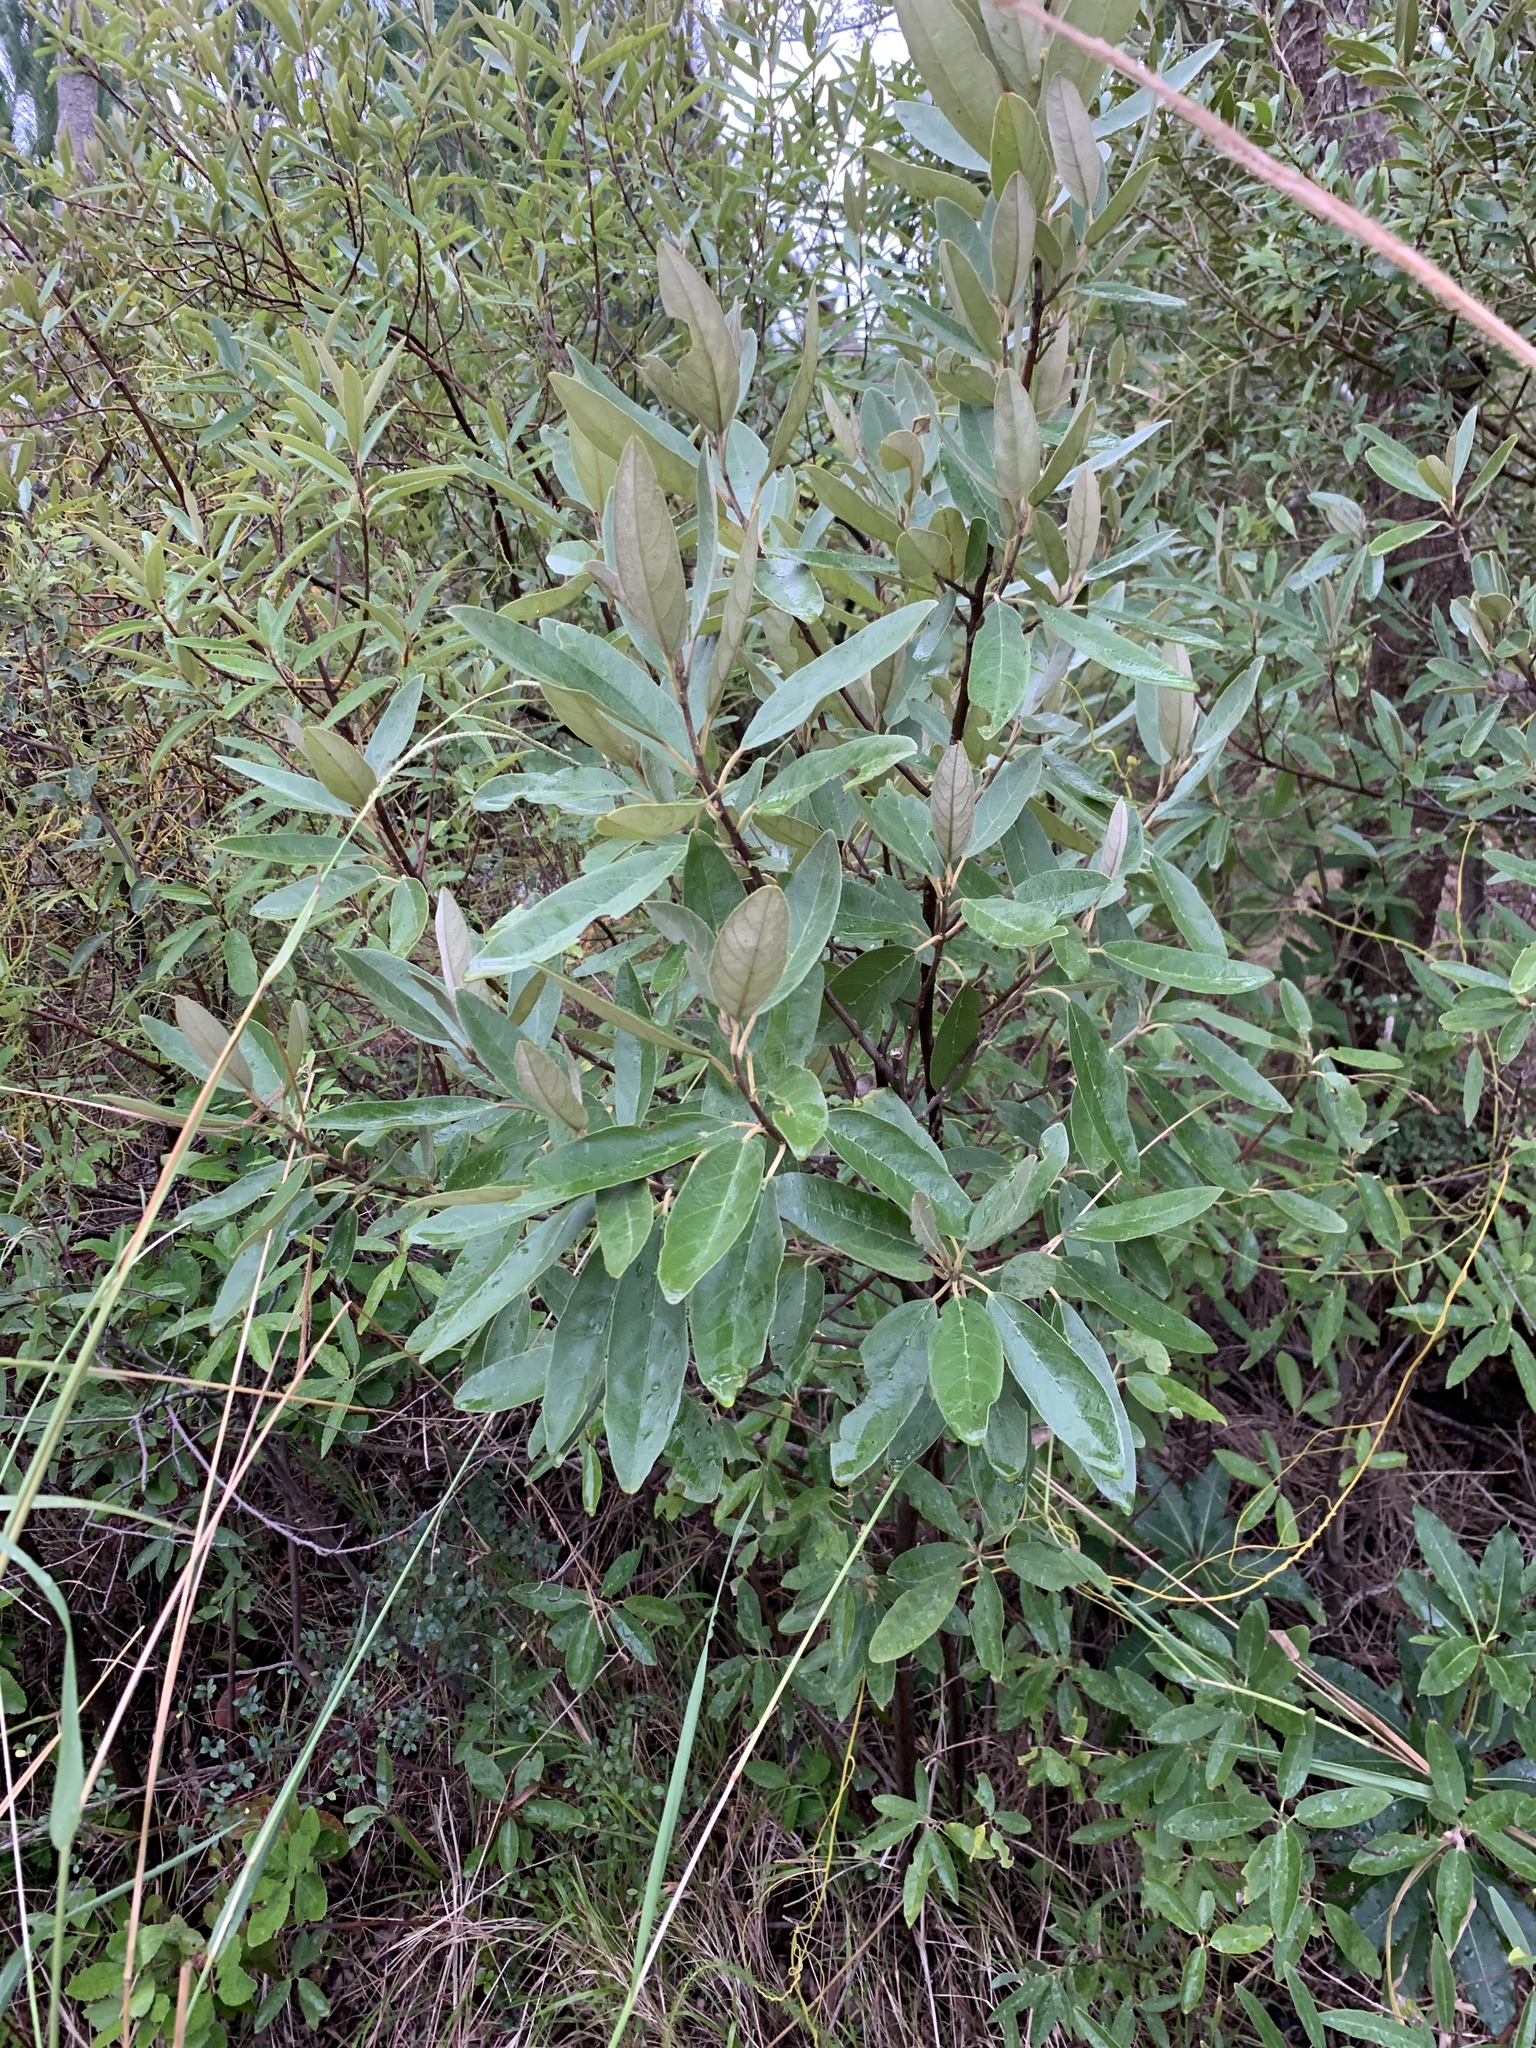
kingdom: Plantae
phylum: Tracheophyta
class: Magnoliopsida
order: Malpighiales
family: Achariaceae
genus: Kiggelaria
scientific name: Kiggelaria africana
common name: Wild peach
